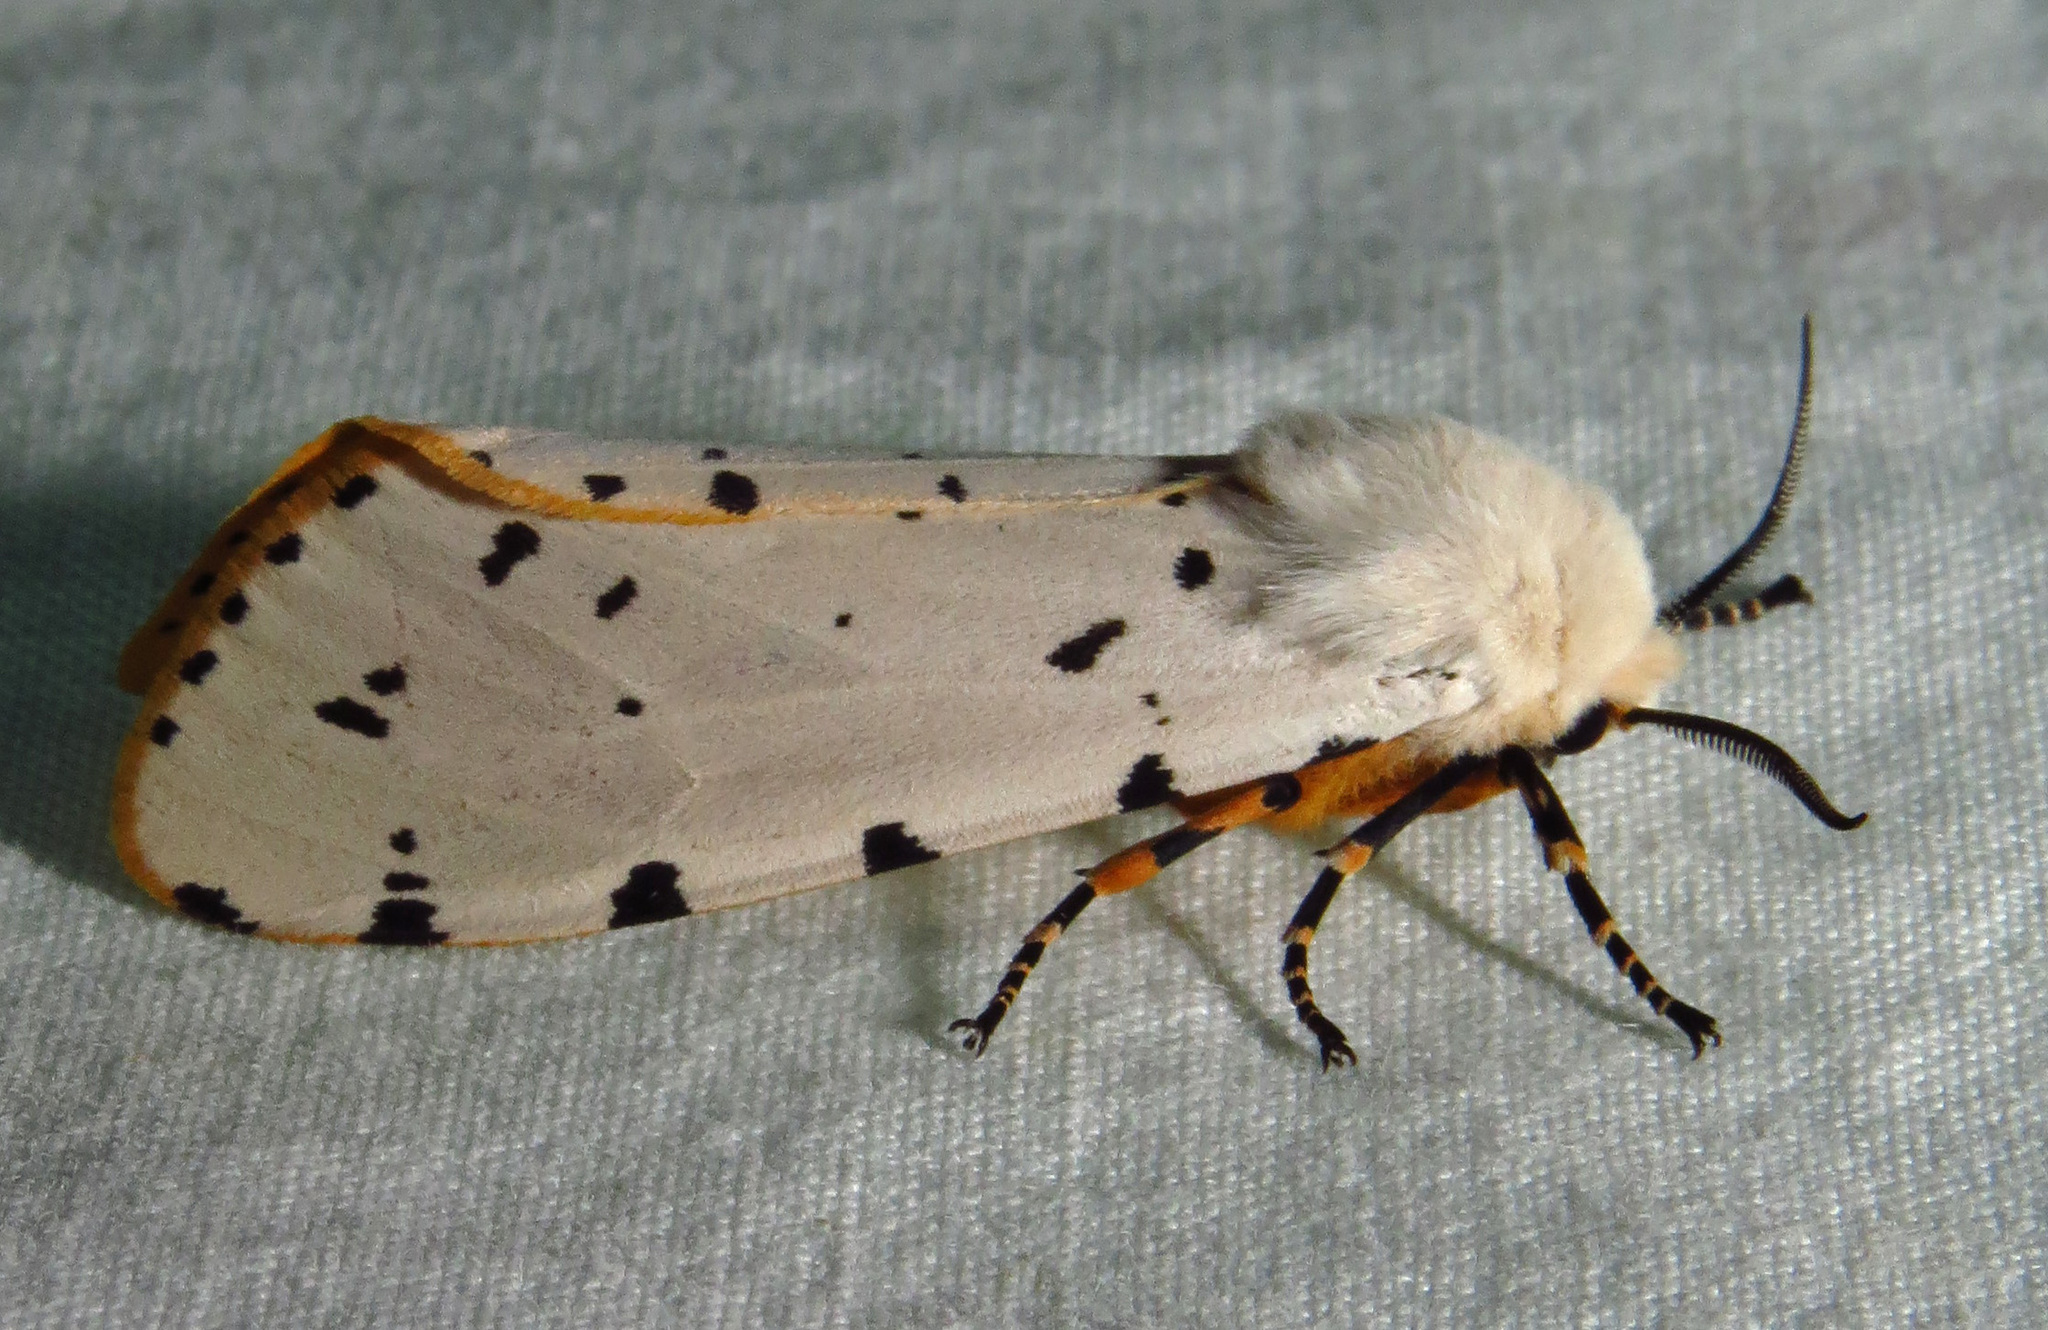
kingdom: Animalia
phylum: Arthropoda
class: Insecta
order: Lepidoptera
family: Erebidae
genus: Estigmene
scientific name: Estigmene acrea
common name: Salt marsh moth
